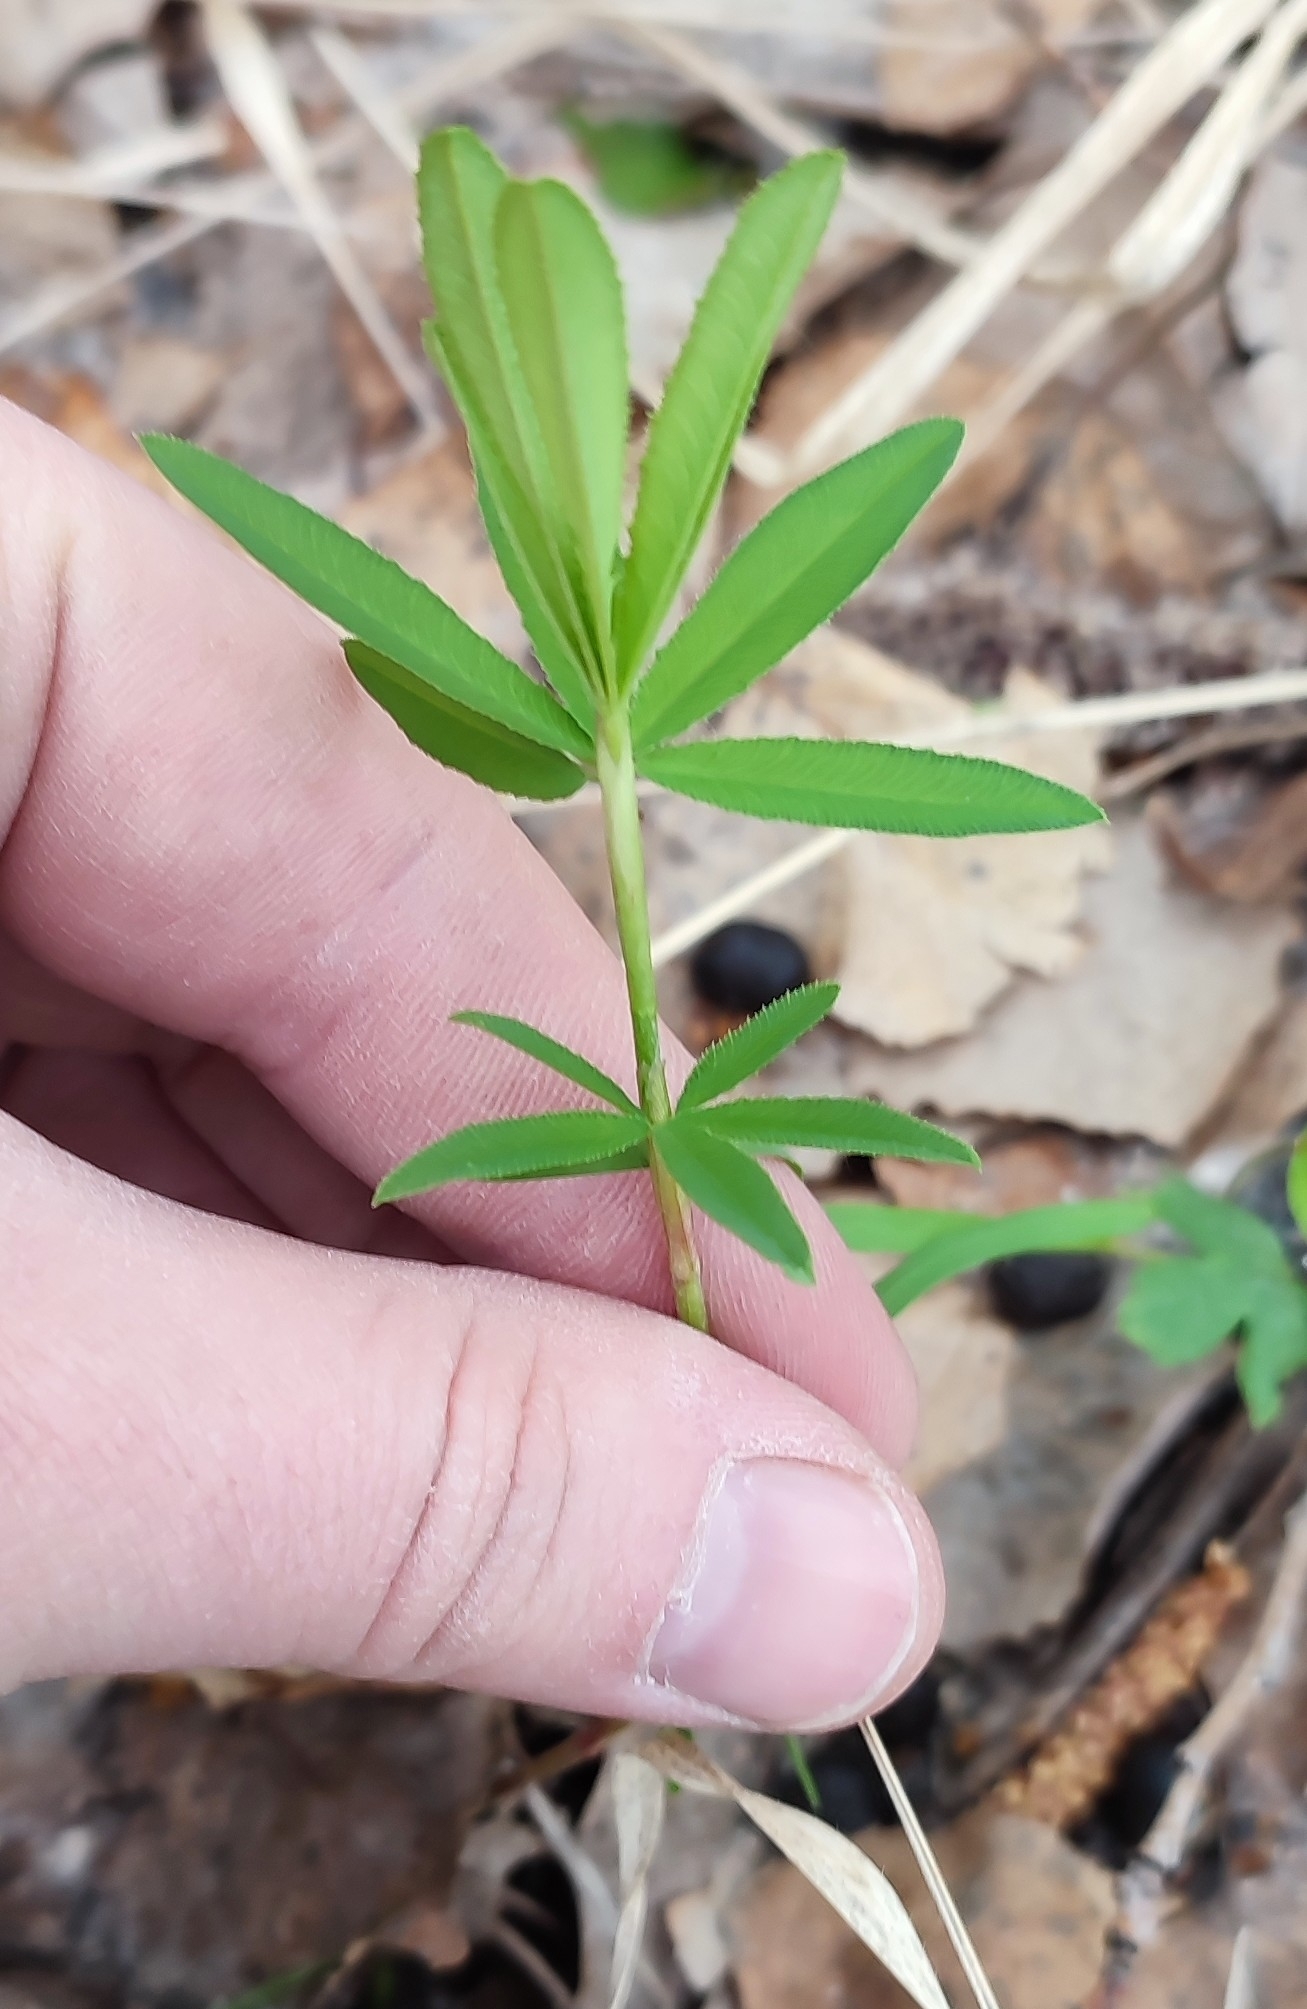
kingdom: Plantae
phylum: Tracheophyta
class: Magnoliopsida
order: Fabales
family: Fabaceae
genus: Trifolium
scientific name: Trifolium lupinaster
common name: Lupine clover
